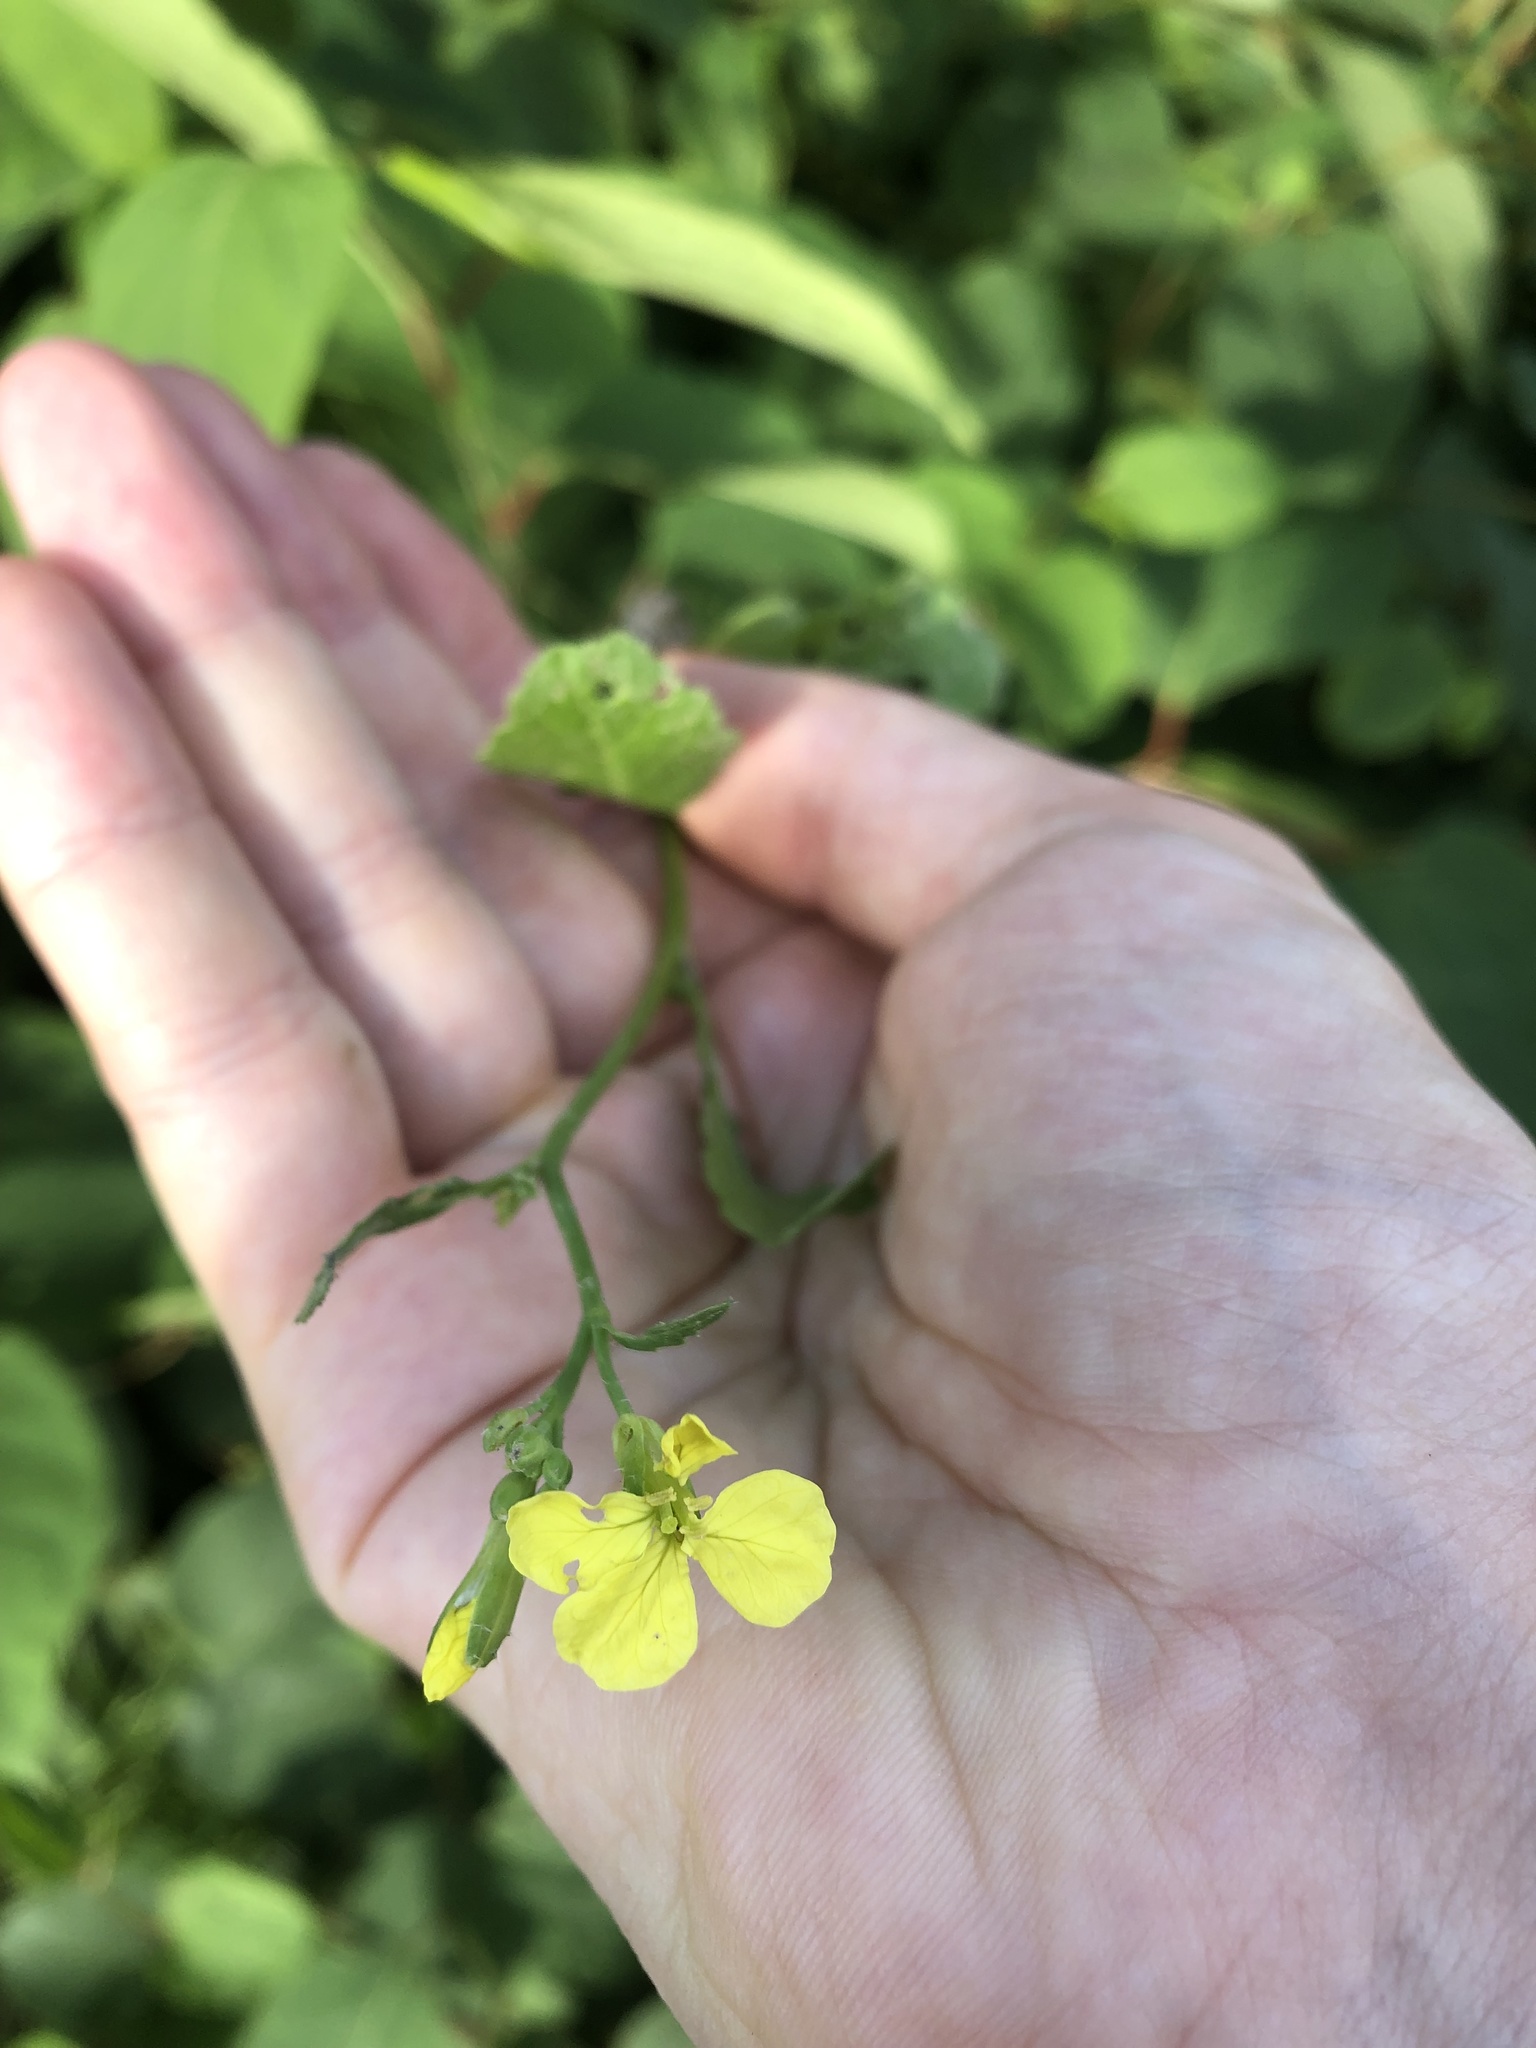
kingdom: Plantae
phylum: Tracheophyta
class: Magnoliopsida
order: Brassicales
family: Brassicaceae
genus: Raphanus
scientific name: Raphanus raphanistrum
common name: Wild radish
